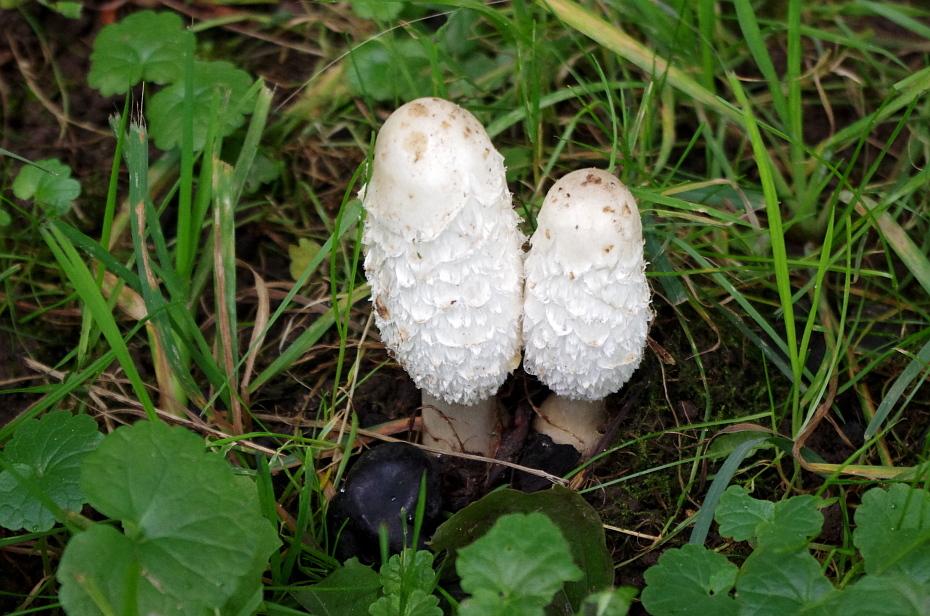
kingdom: Fungi
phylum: Basidiomycota
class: Agaricomycetes
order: Agaricales
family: Agaricaceae
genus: Coprinus
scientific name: Coprinus comatus
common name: Lawyer's wig
